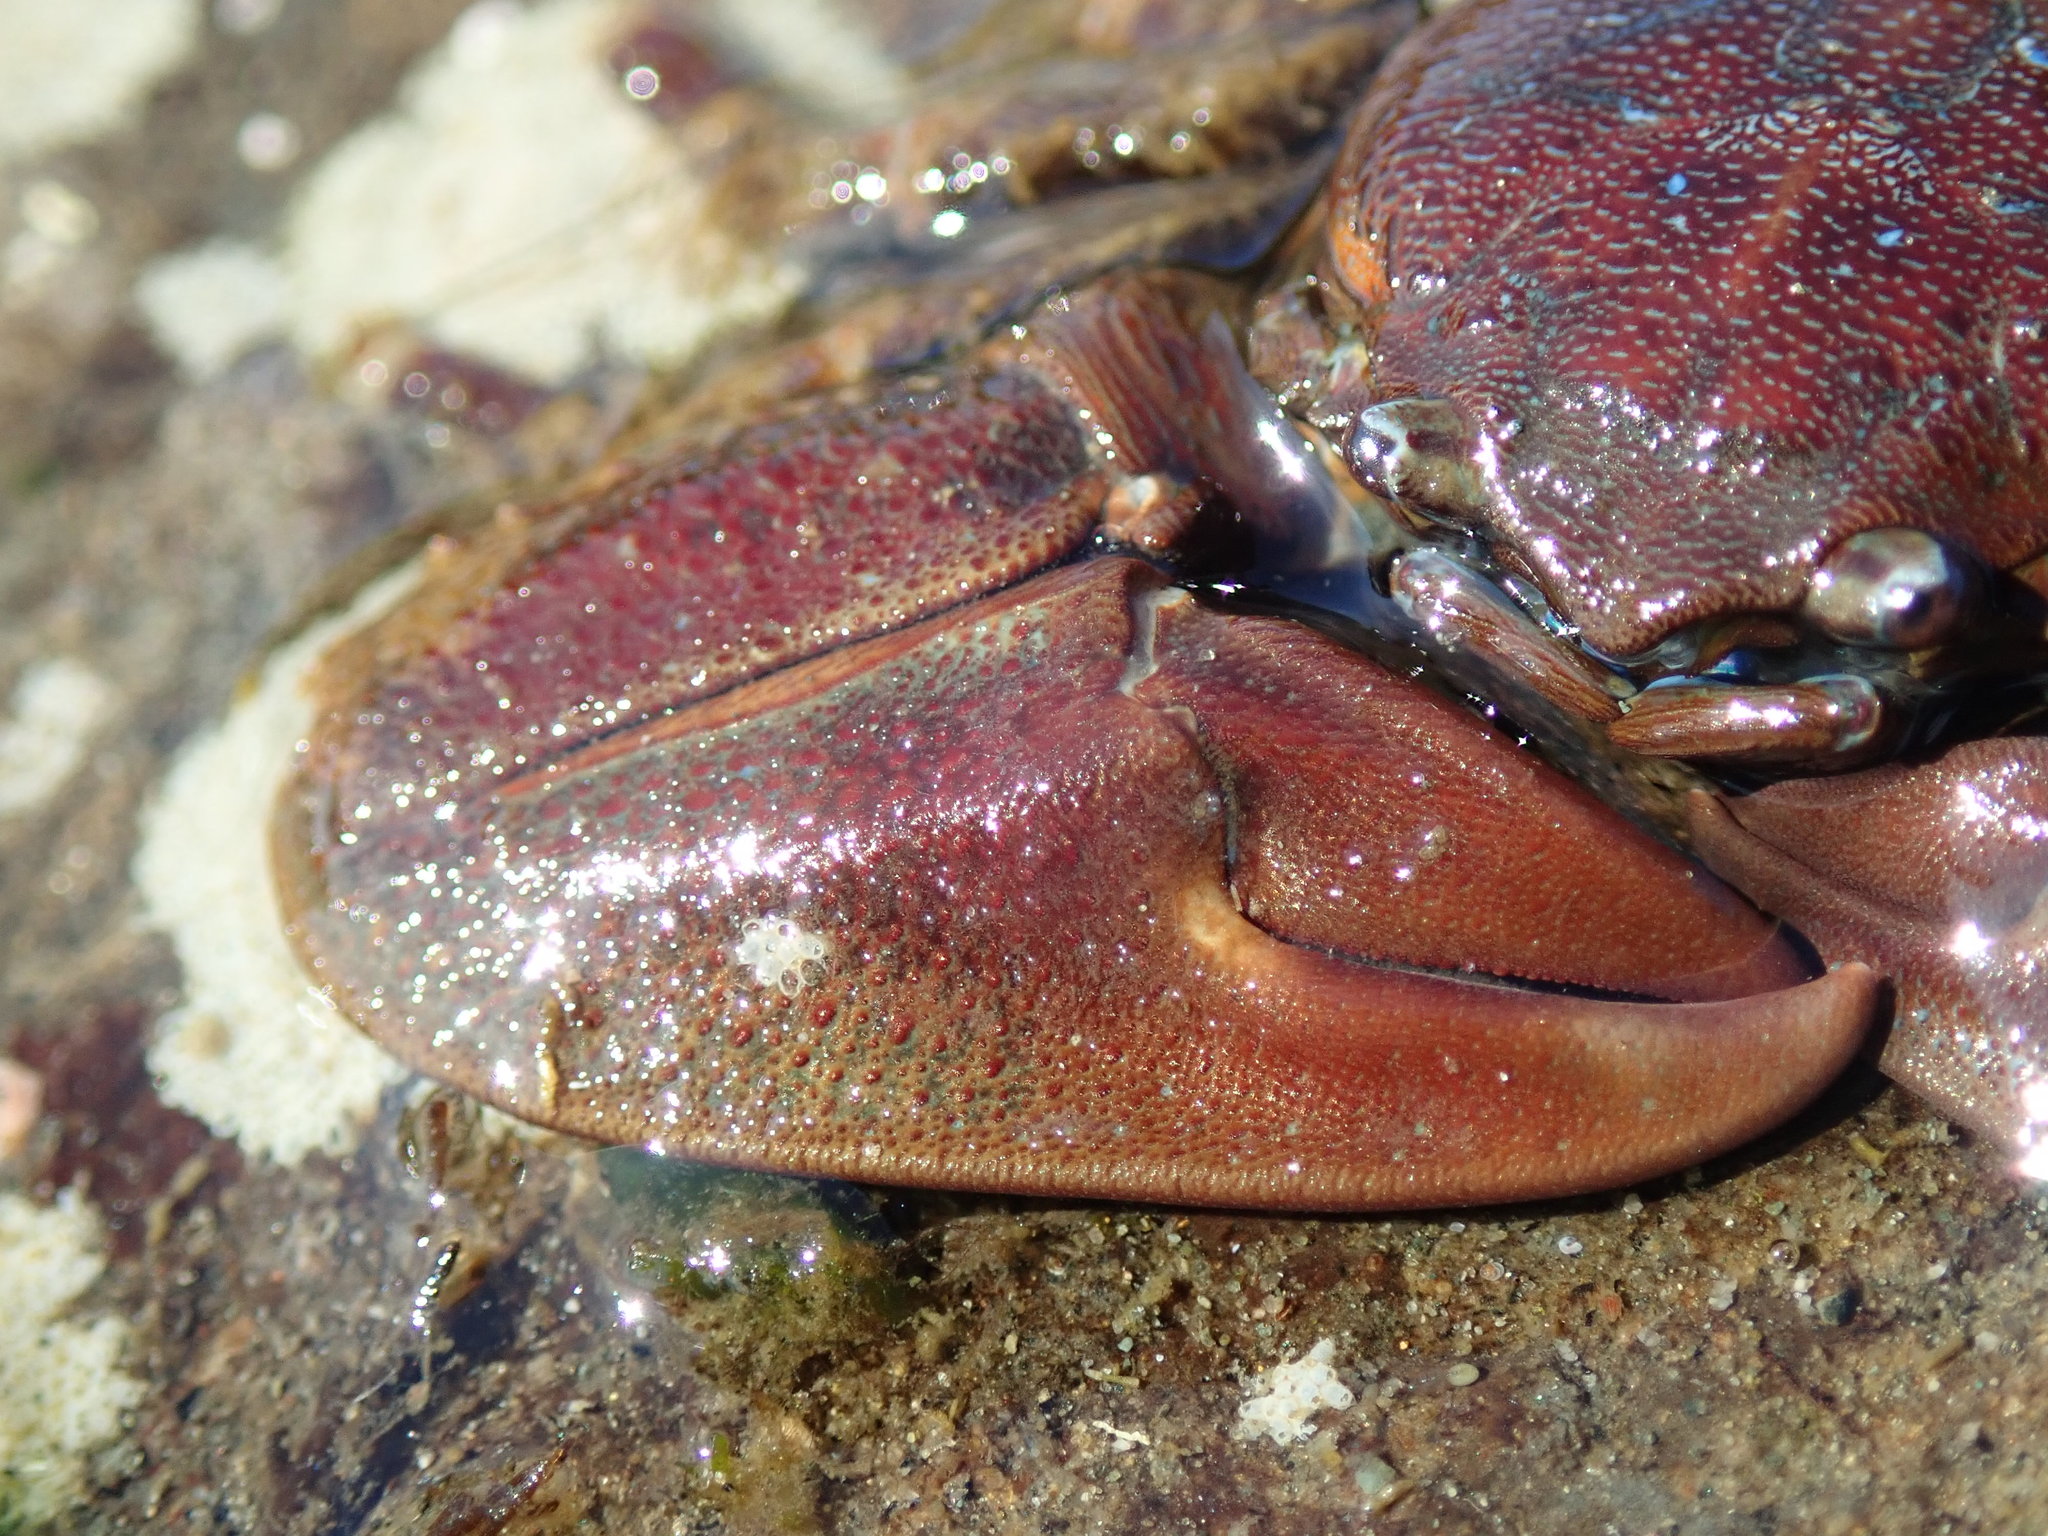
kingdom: Animalia
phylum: Arthropoda
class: Malacostraca
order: Decapoda
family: Porcellanidae
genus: Petrolisthes
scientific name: Petrolisthes eriomerus
